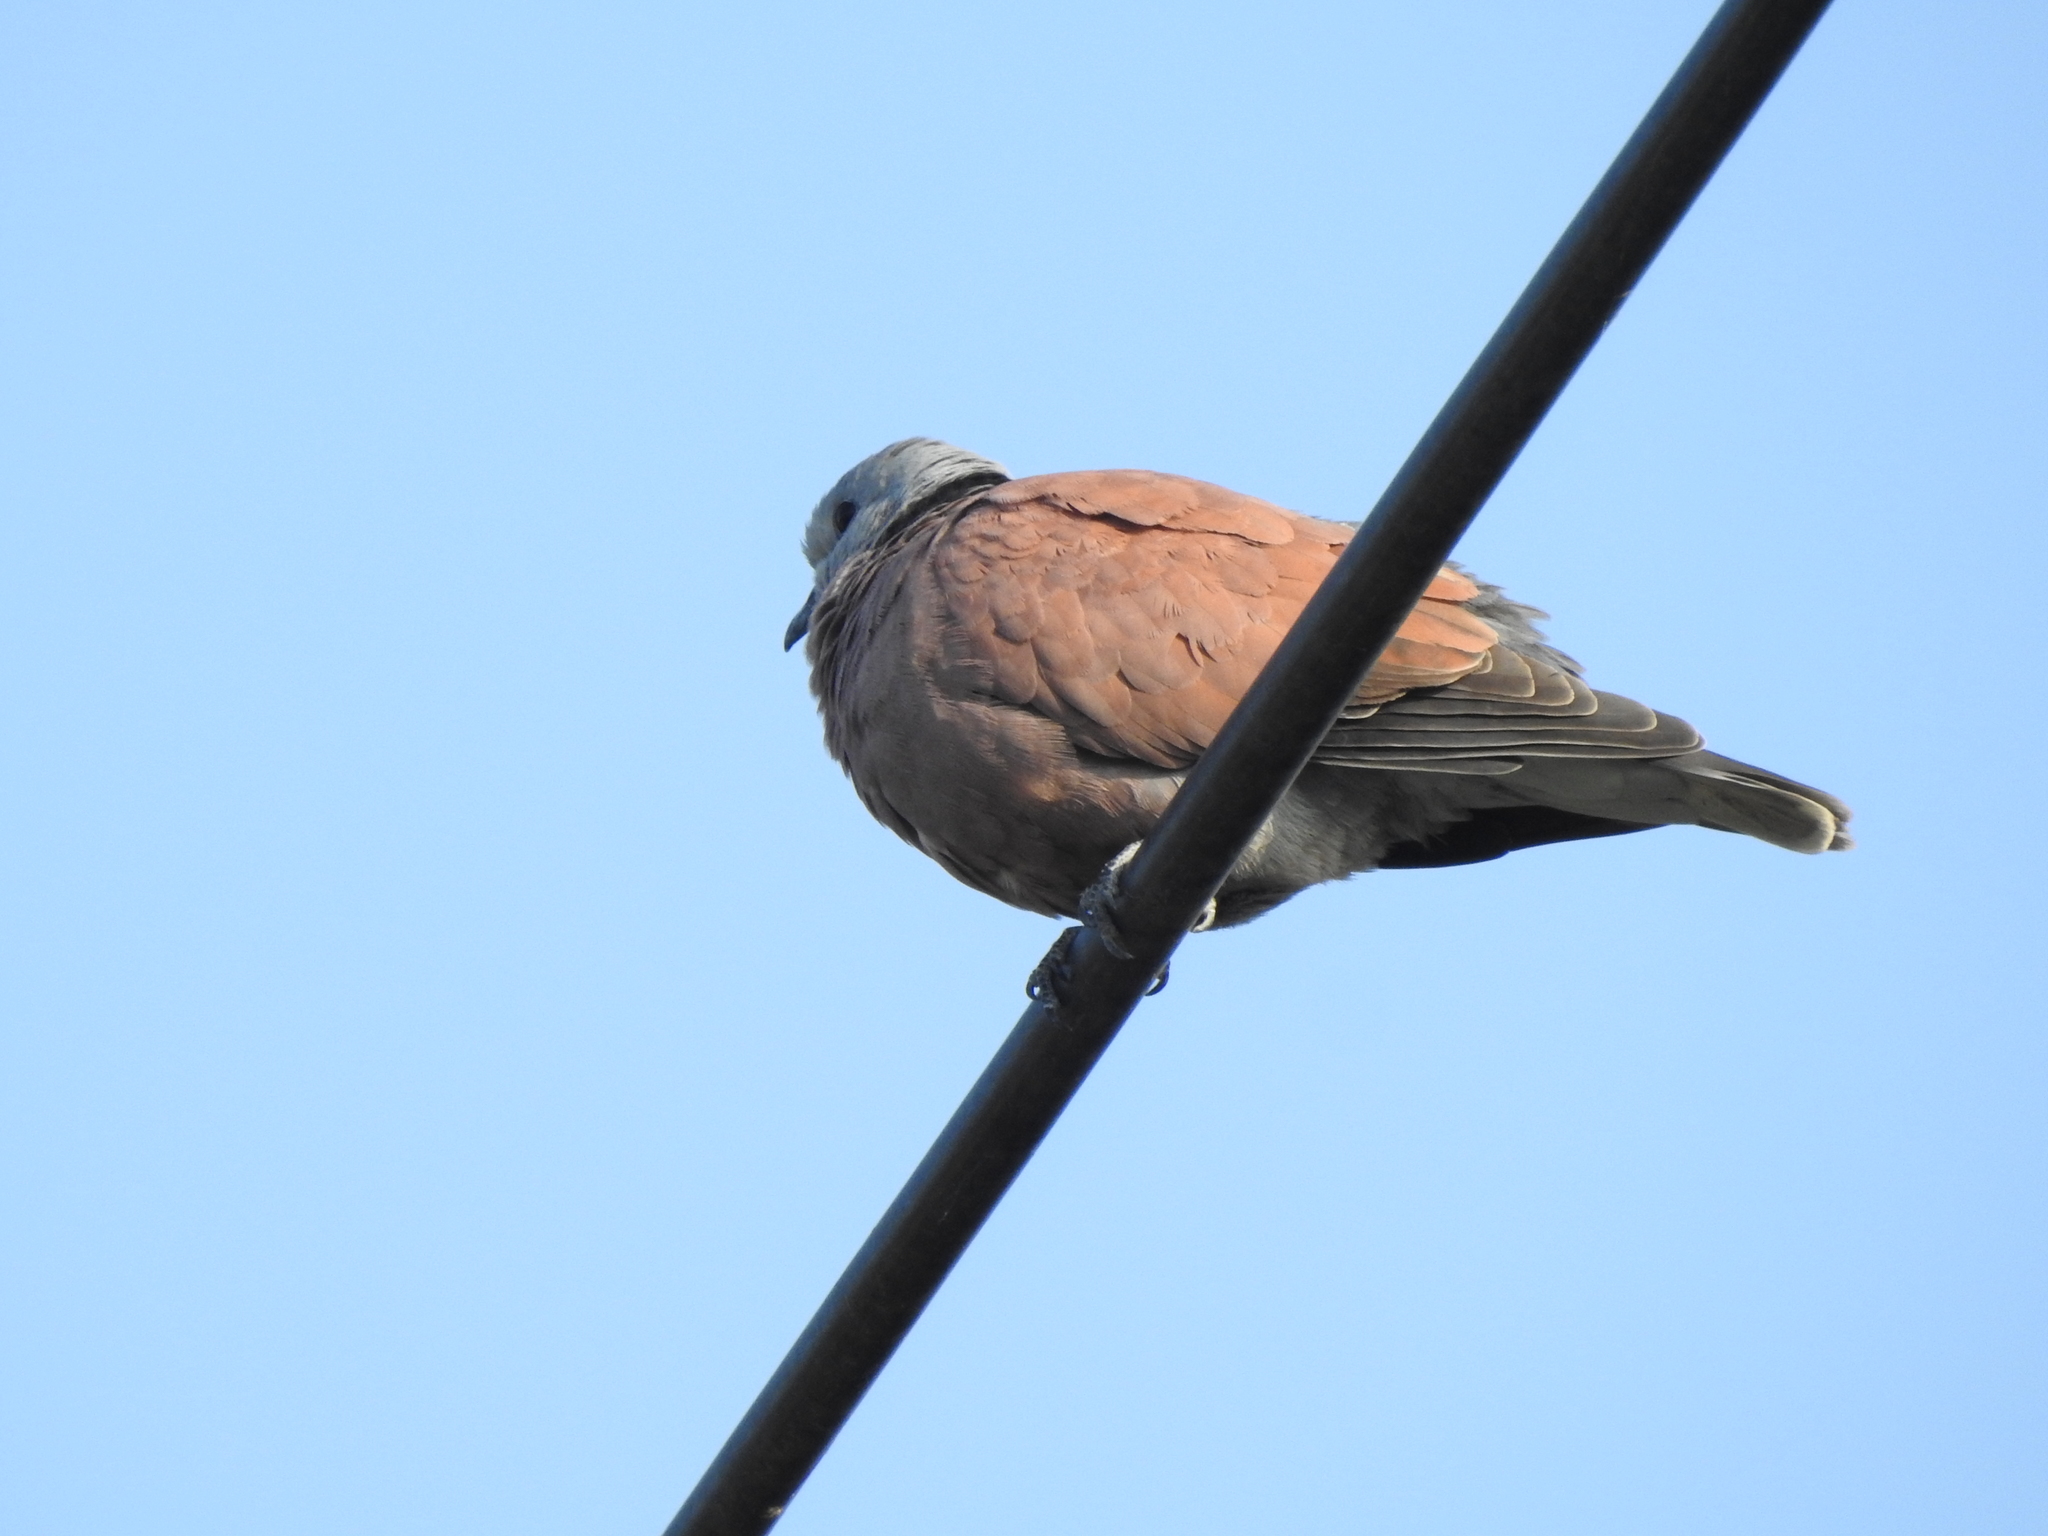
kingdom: Animalia
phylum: Chordata
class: Aves
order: Columbiformes
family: Columbidae
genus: Streptopelia
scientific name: Streptopelia tranquebarica
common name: Red turtle dove
